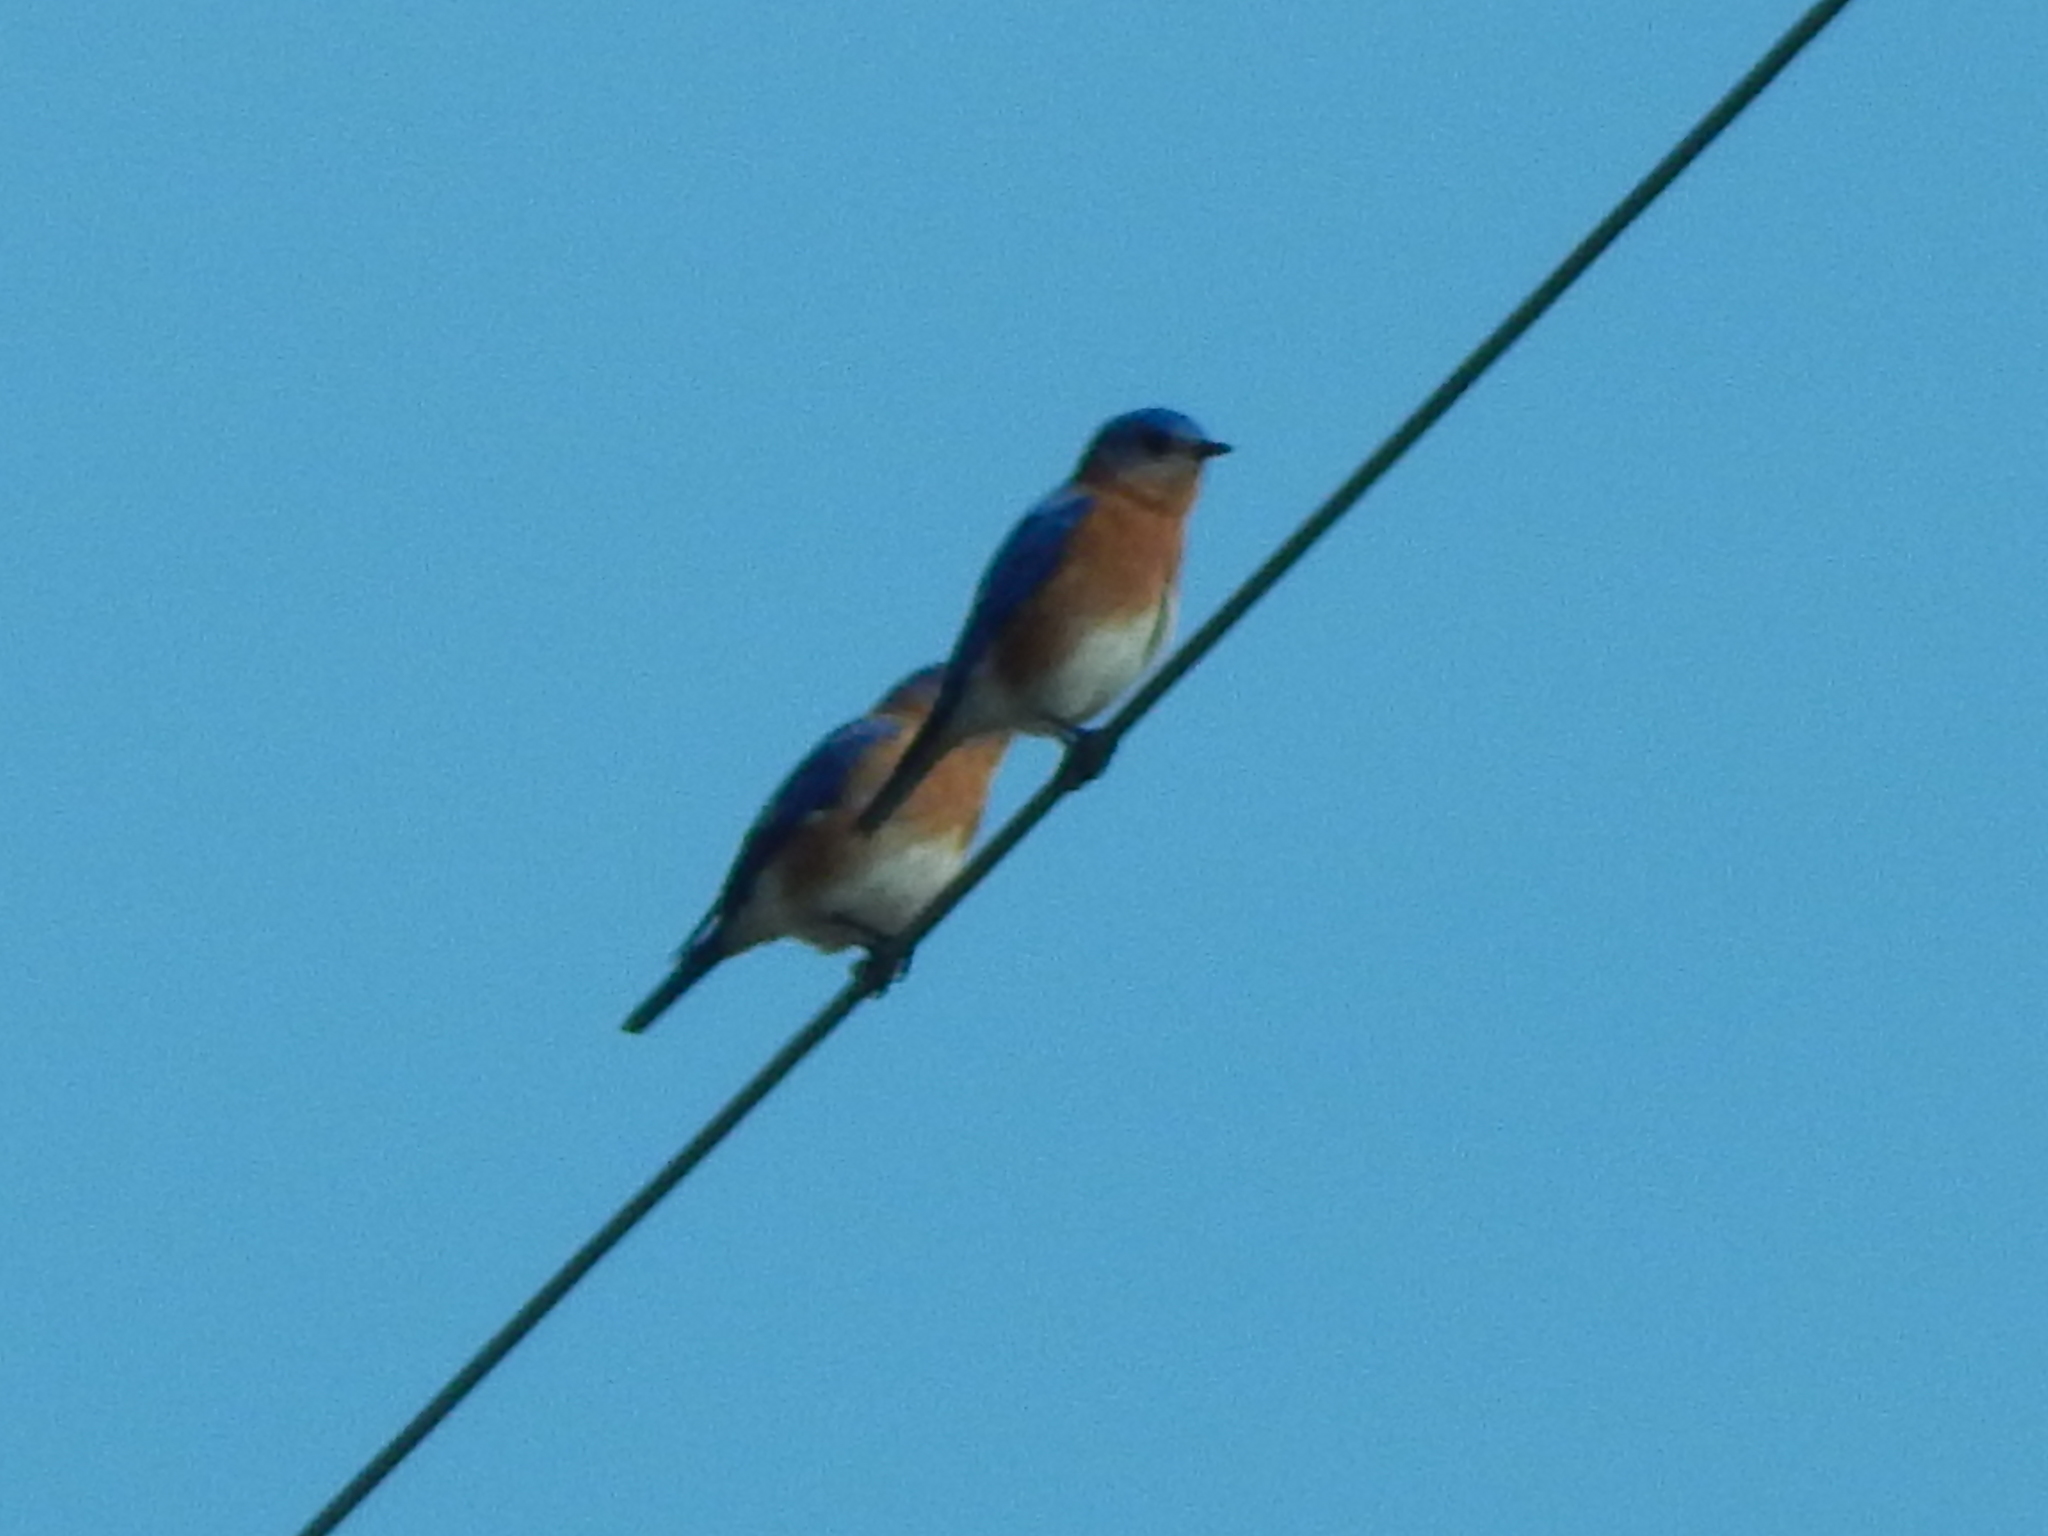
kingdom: Animalia
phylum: Chordata
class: Aves
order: Passeriformes
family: Turdidae
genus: Sialia
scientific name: Sialia sialis
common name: Eastern bluebird
